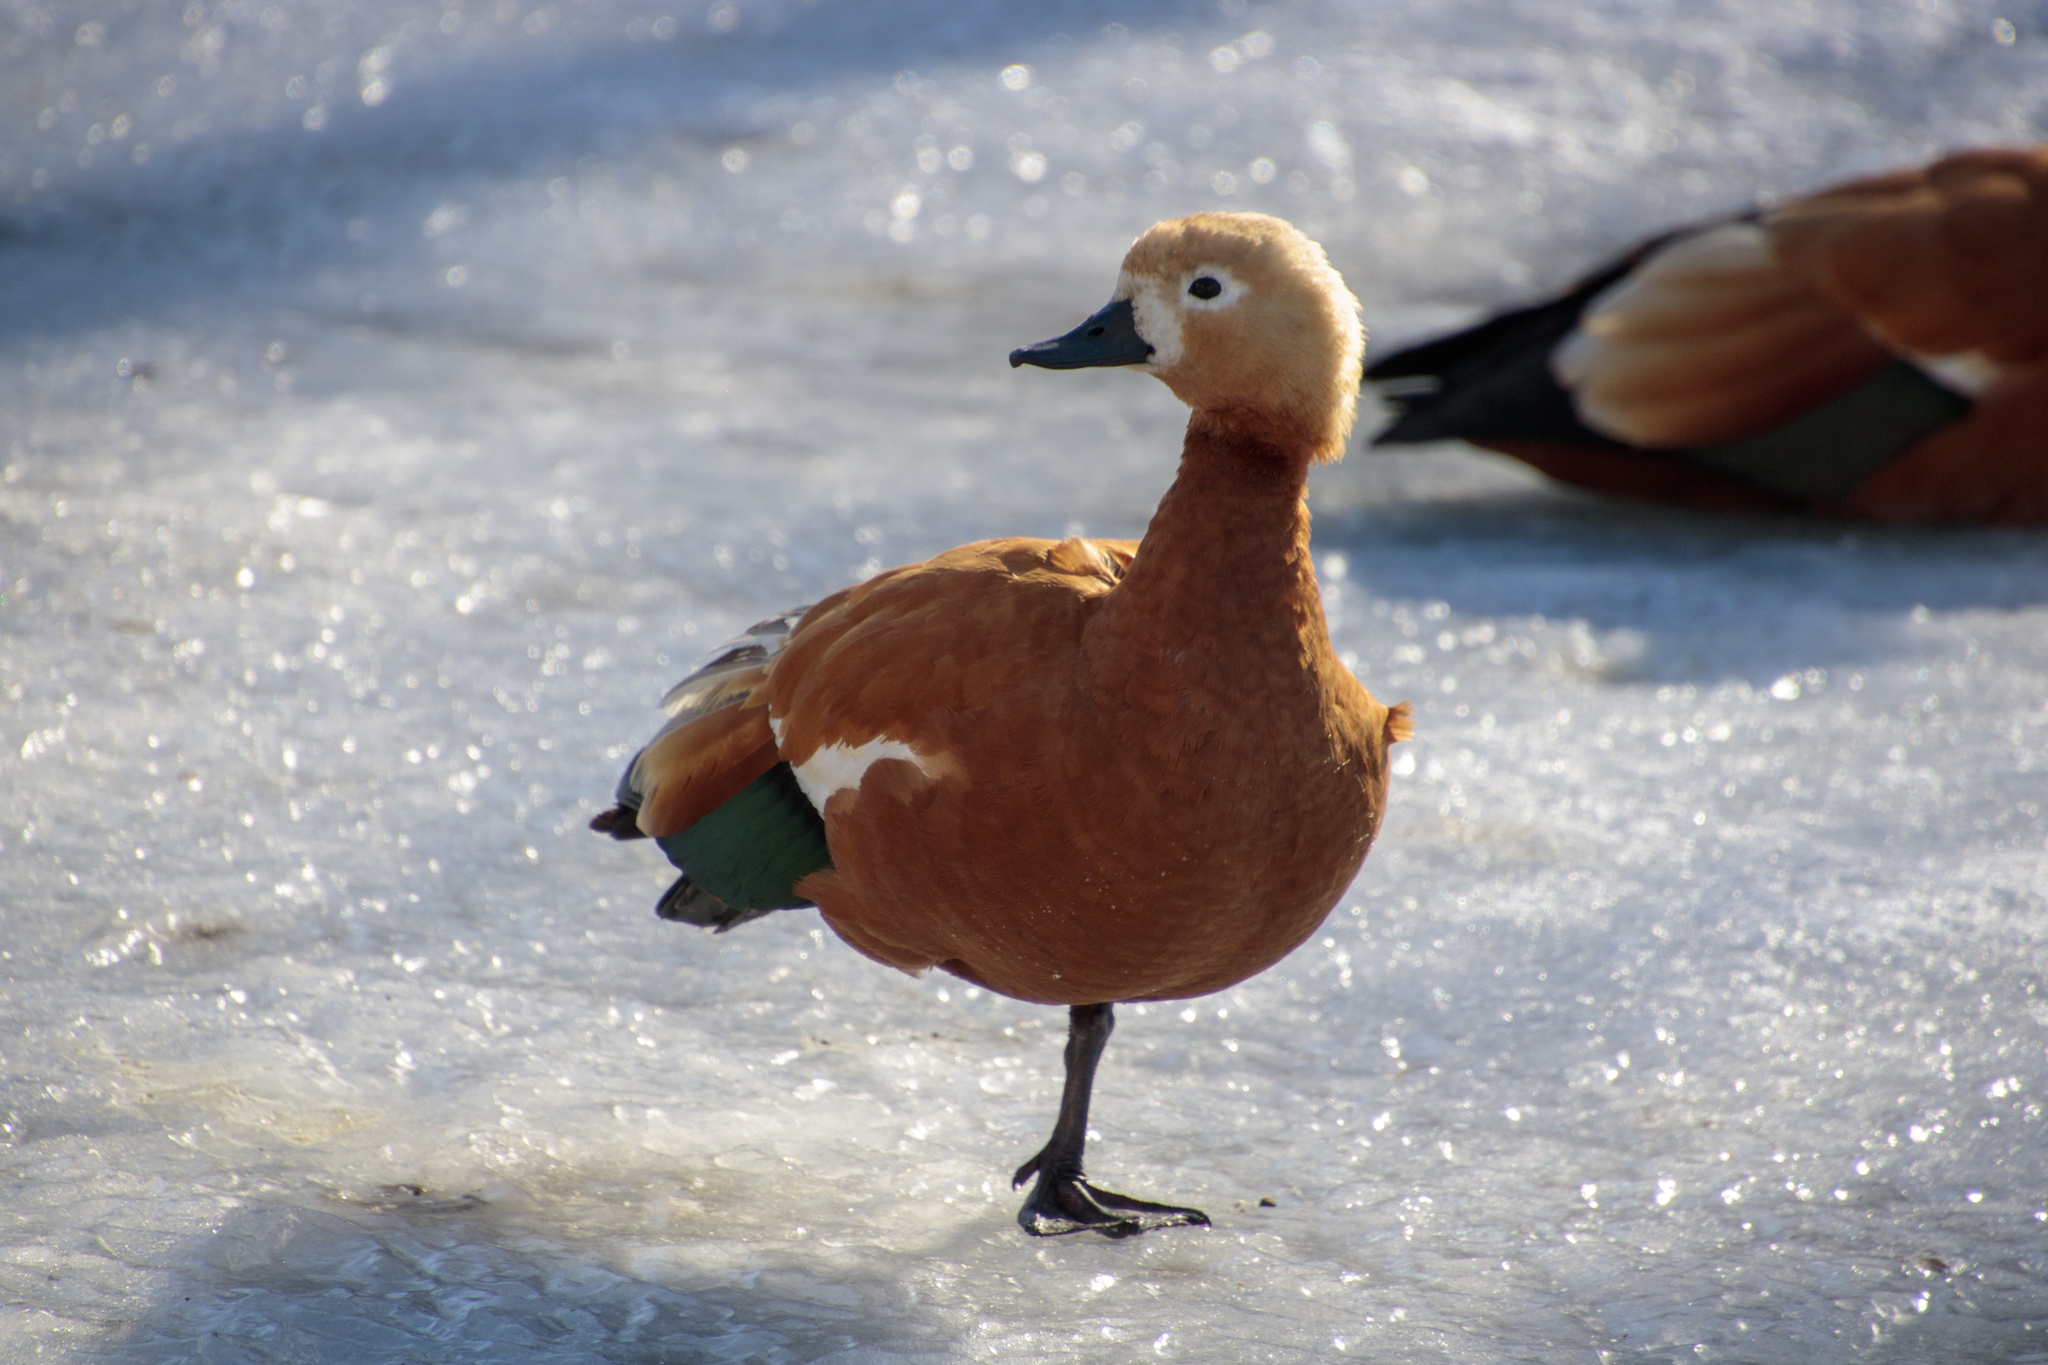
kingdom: Animalia
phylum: Chordata
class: Aves
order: Anseriformes
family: Anatidae
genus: Tadorna
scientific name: Tadorna ferruginea
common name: Ruddy shelduck
